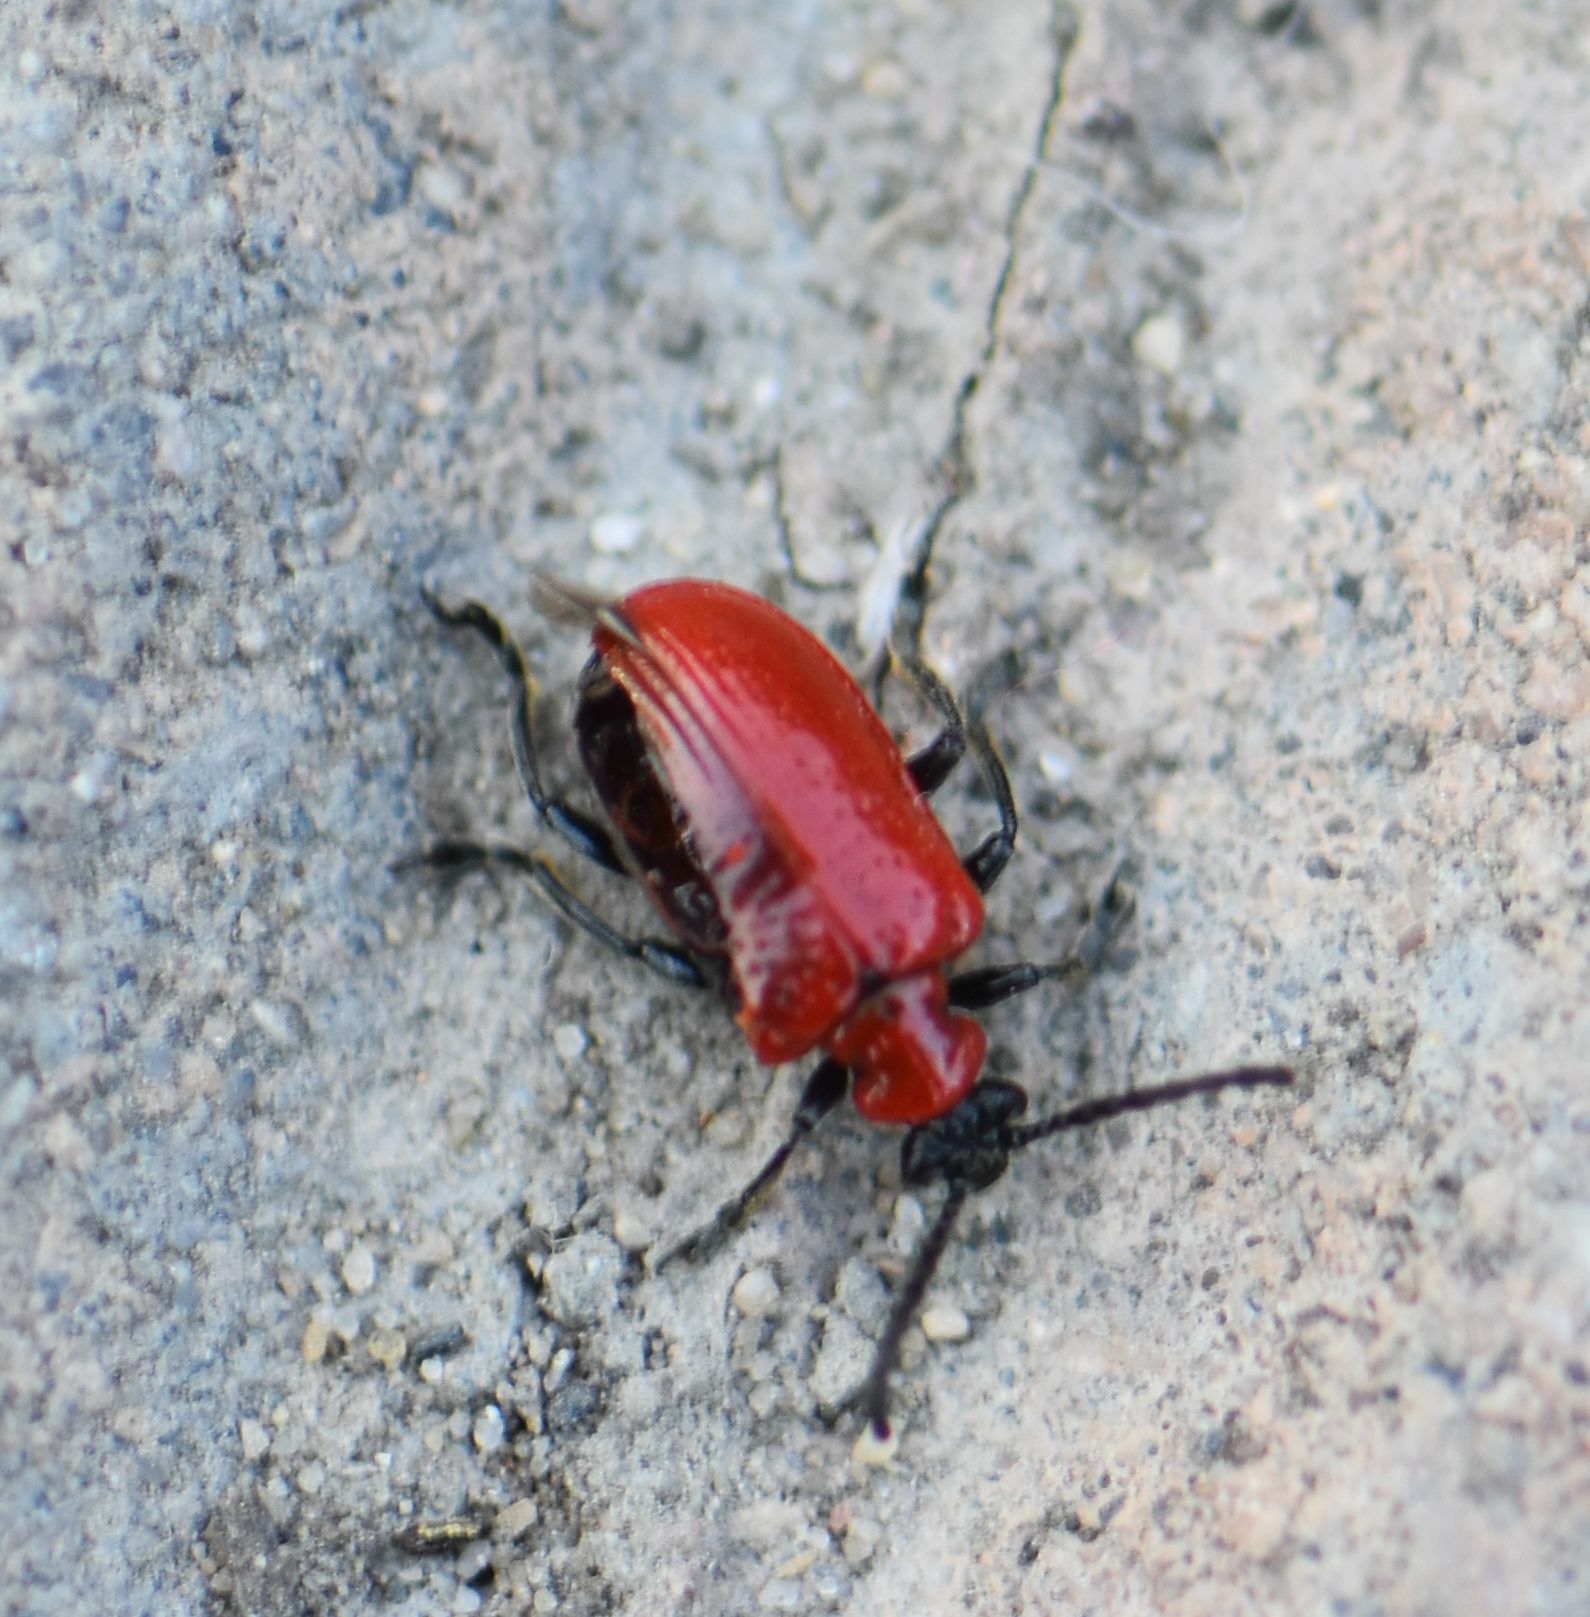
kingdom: Animalia
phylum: Arthropoda
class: Insecta
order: Coleoptera
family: Chrysomelidae
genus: Lilioceris
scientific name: Lilioceris lilii
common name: Lily beetle
